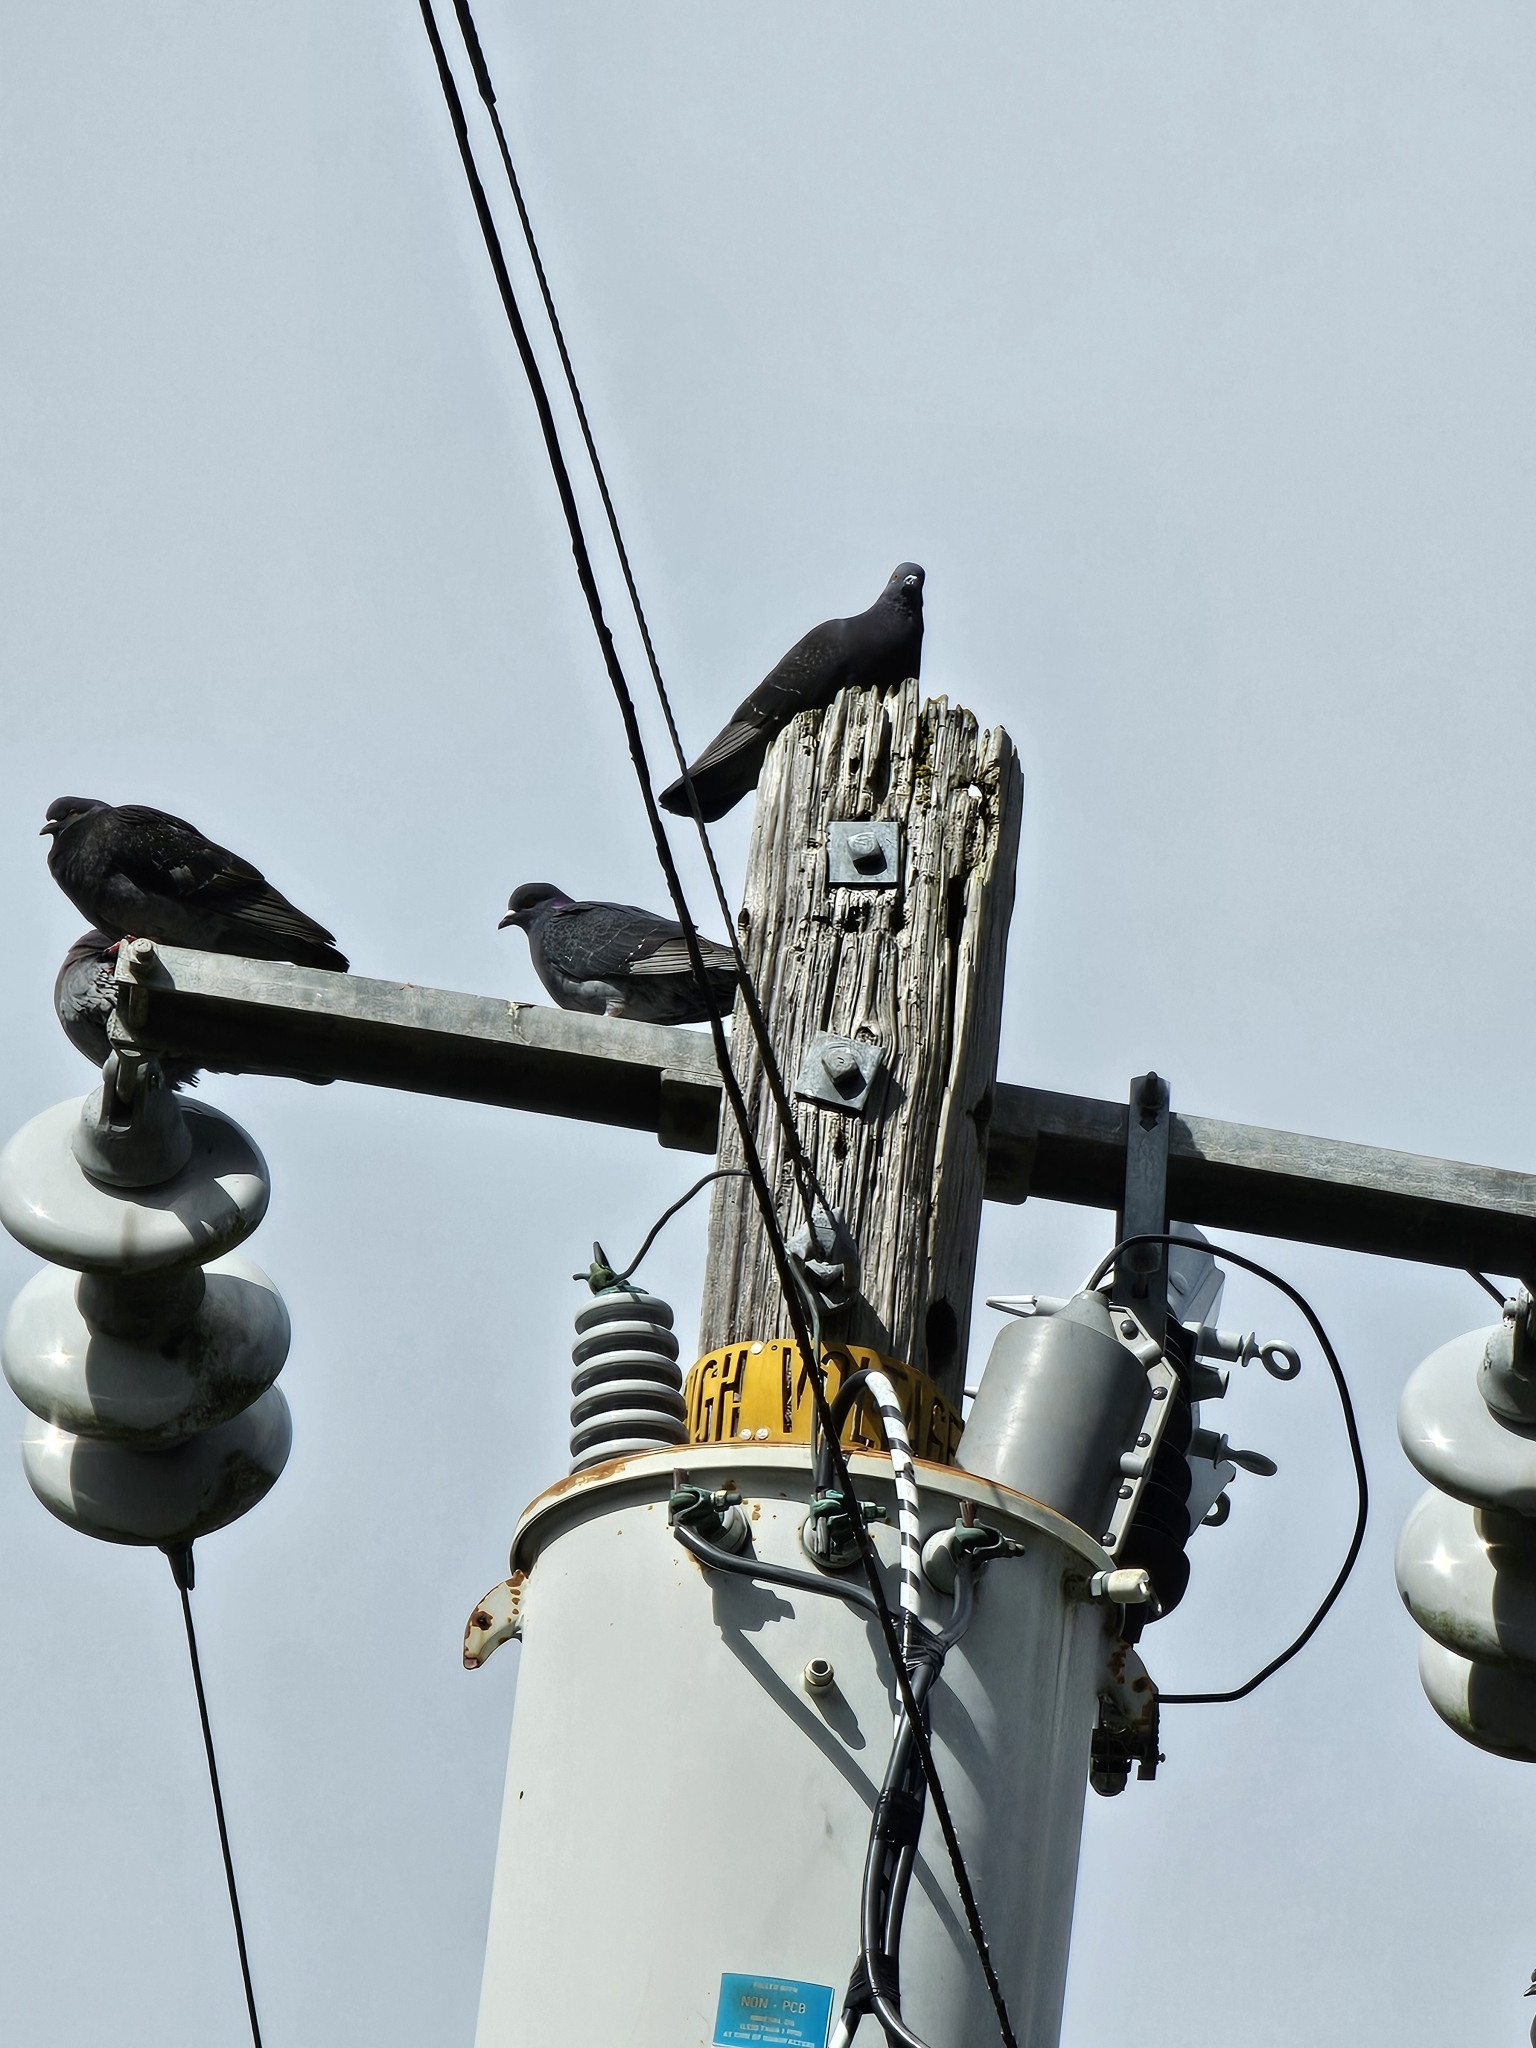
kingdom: Animalia
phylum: Chordata
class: Aves
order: Columbiformes
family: Columbidae
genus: Columba
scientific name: Columba livia
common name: Rock pigeon
